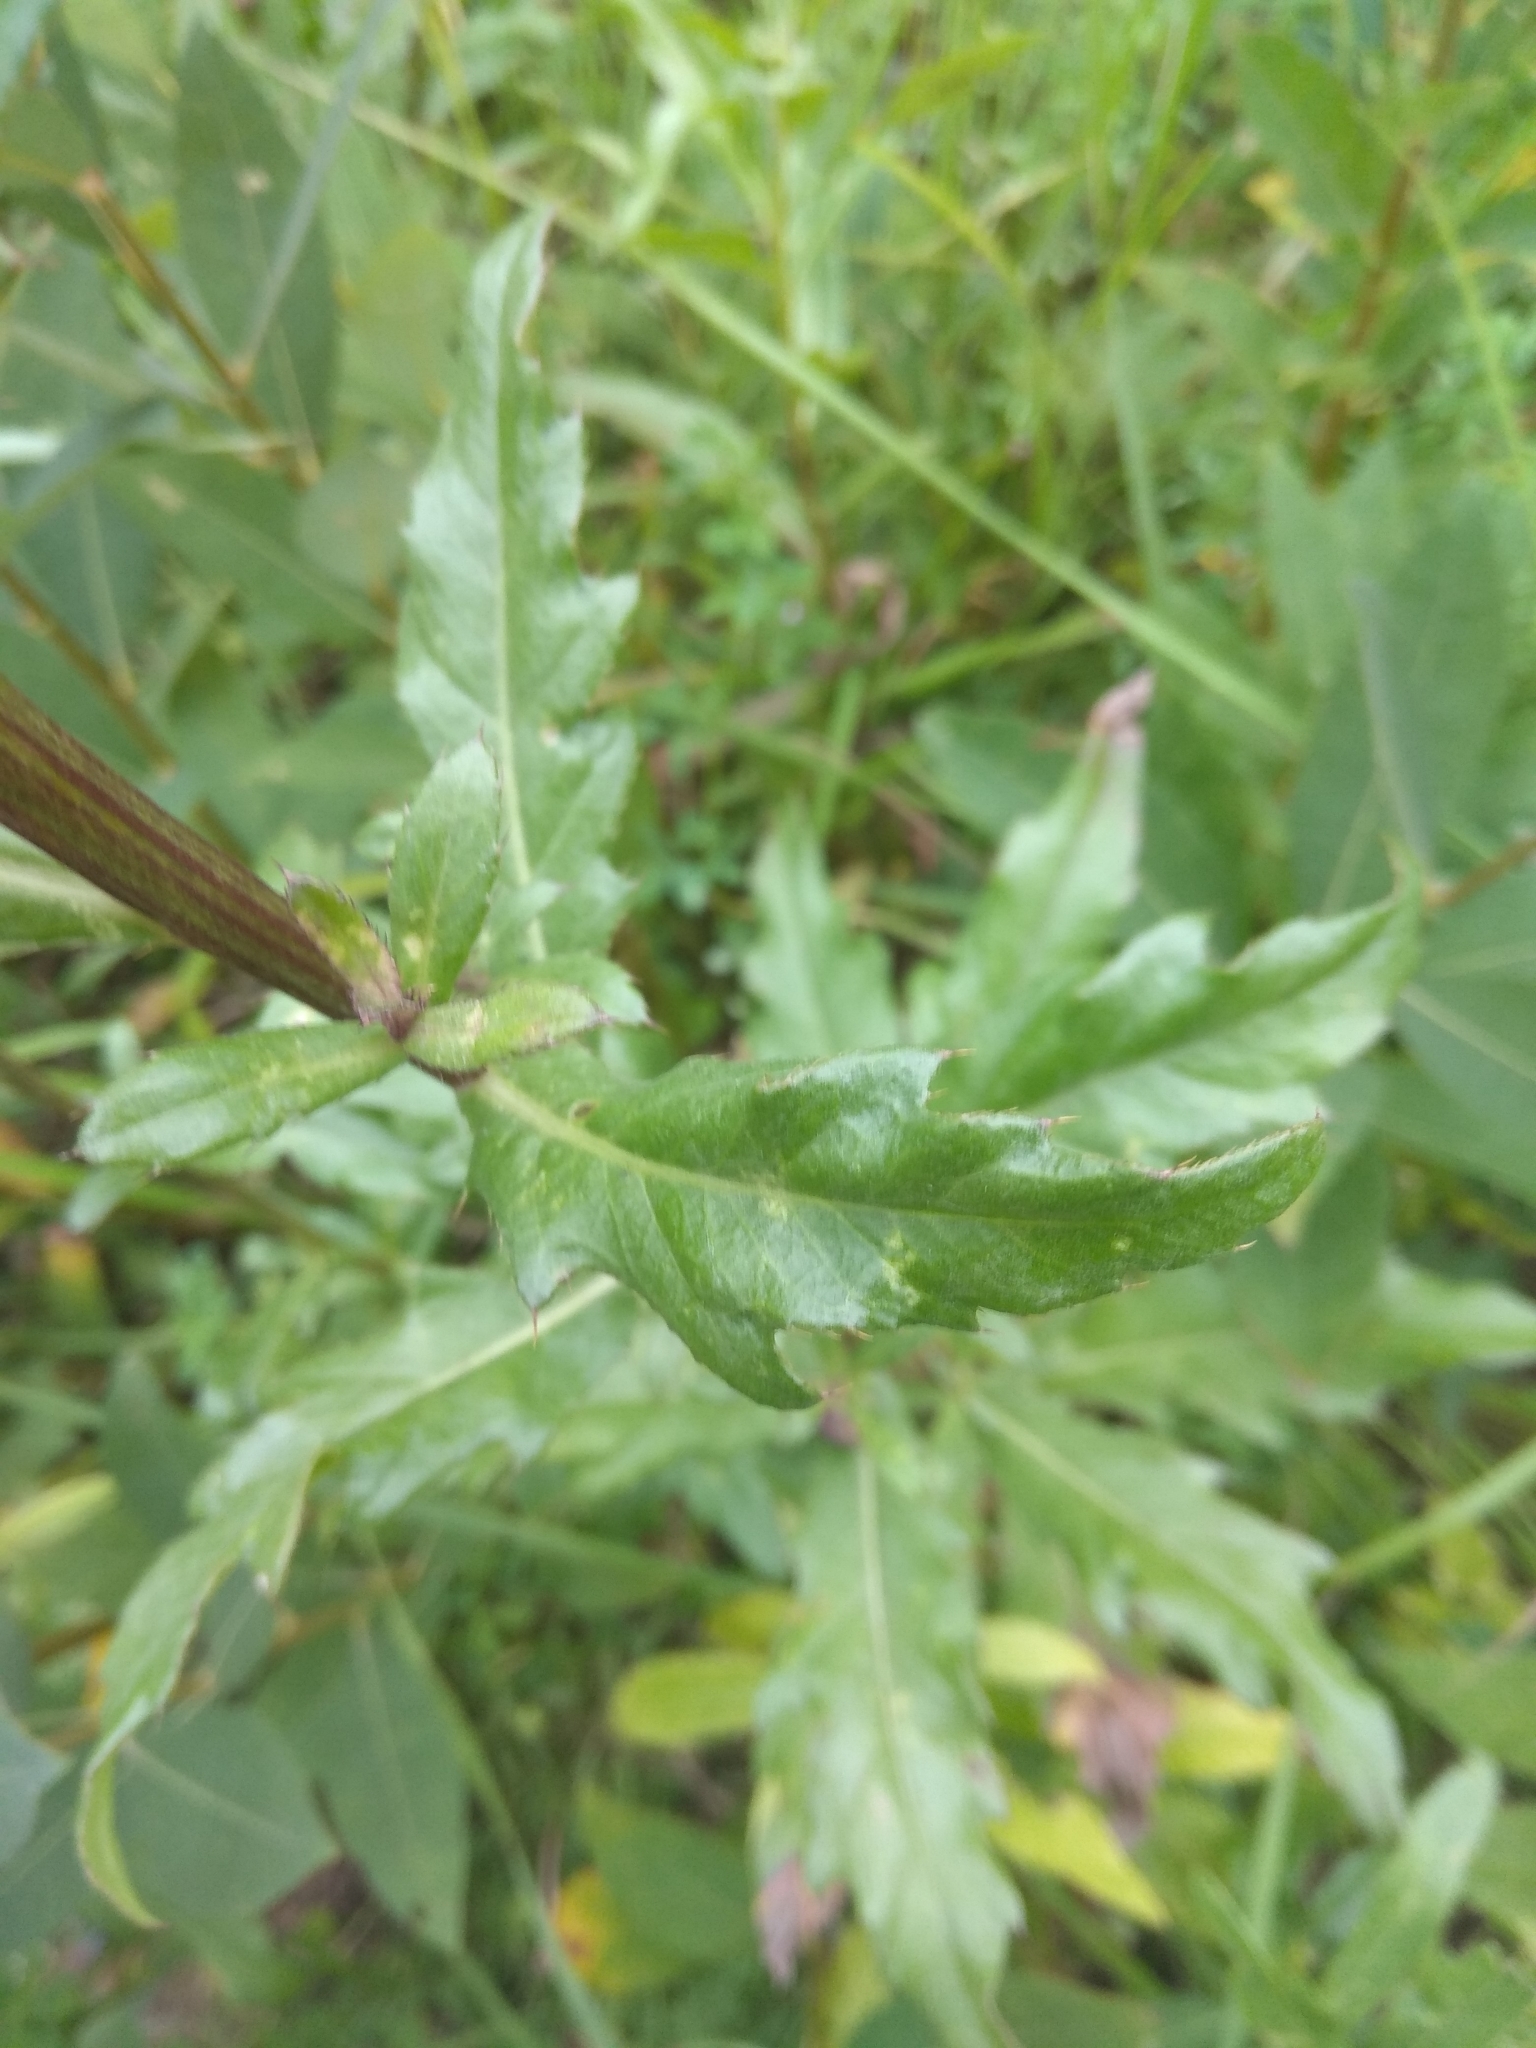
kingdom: Plantae
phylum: Tracheophyta
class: Magnoliopsida
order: Asterales
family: Asteraceae
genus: Cirsium
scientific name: Cirsium arvense
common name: Creeping thistle
